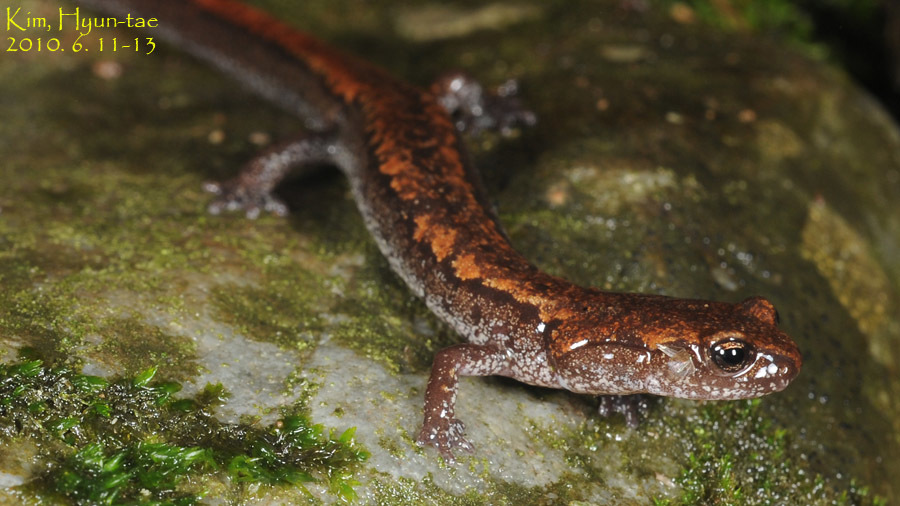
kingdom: Animalia
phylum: Chordata
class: Amphibia
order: Caudata
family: Plethodontidae
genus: Karsenia
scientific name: Karsenia koreana
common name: Korean crevice salamander
